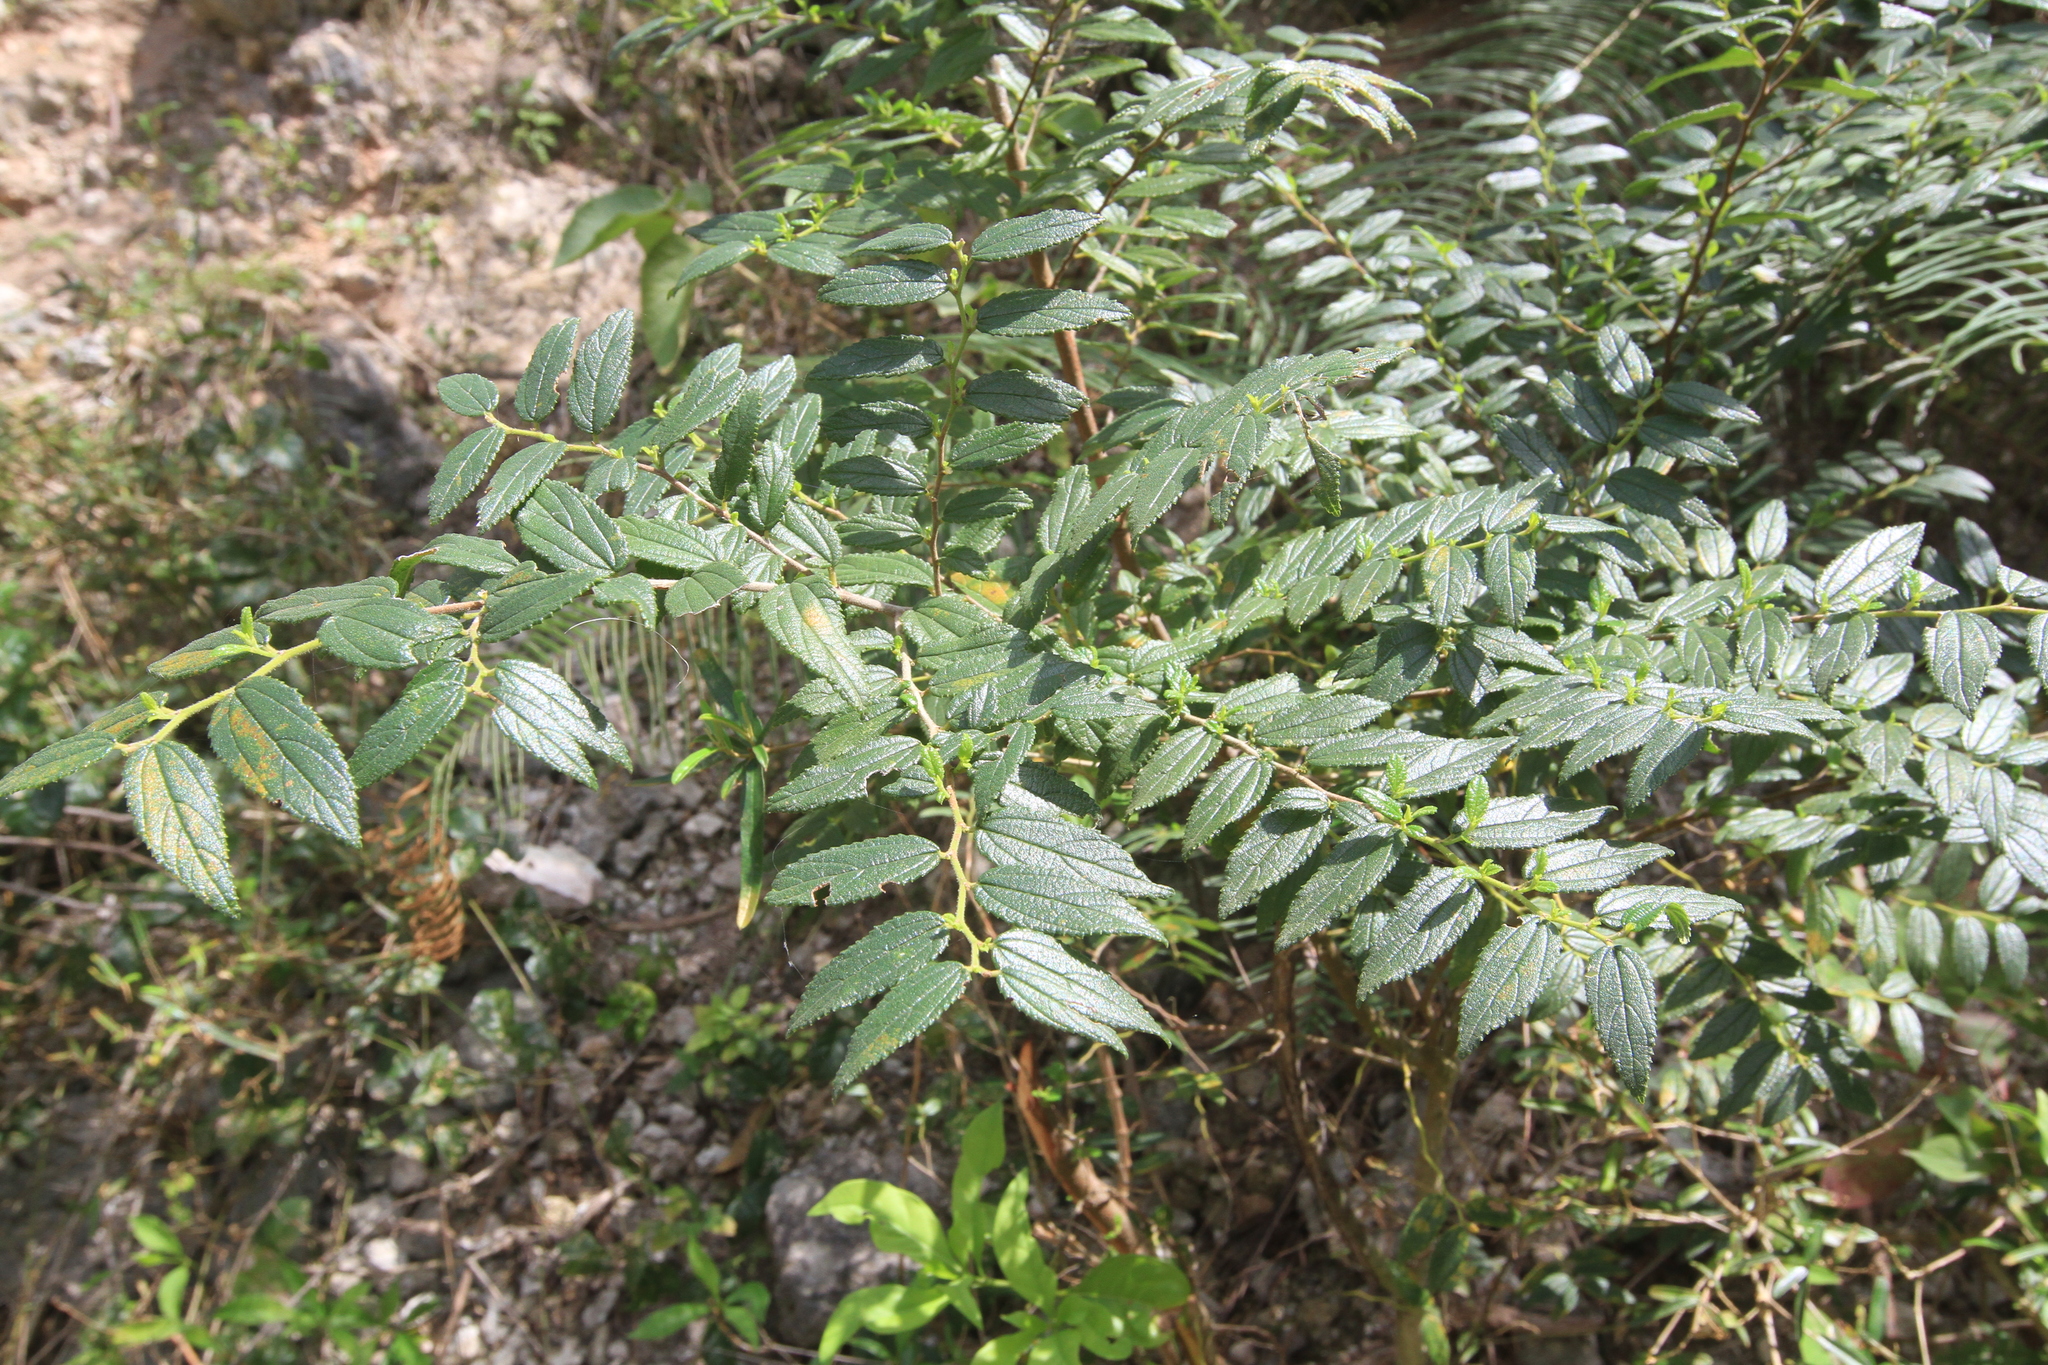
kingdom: Plantae
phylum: Tracheophyta
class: Magnoliopsida
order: Rosales
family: Cannabaceae
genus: Trema
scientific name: Trema lamarckianum
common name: Lamarck's trema
